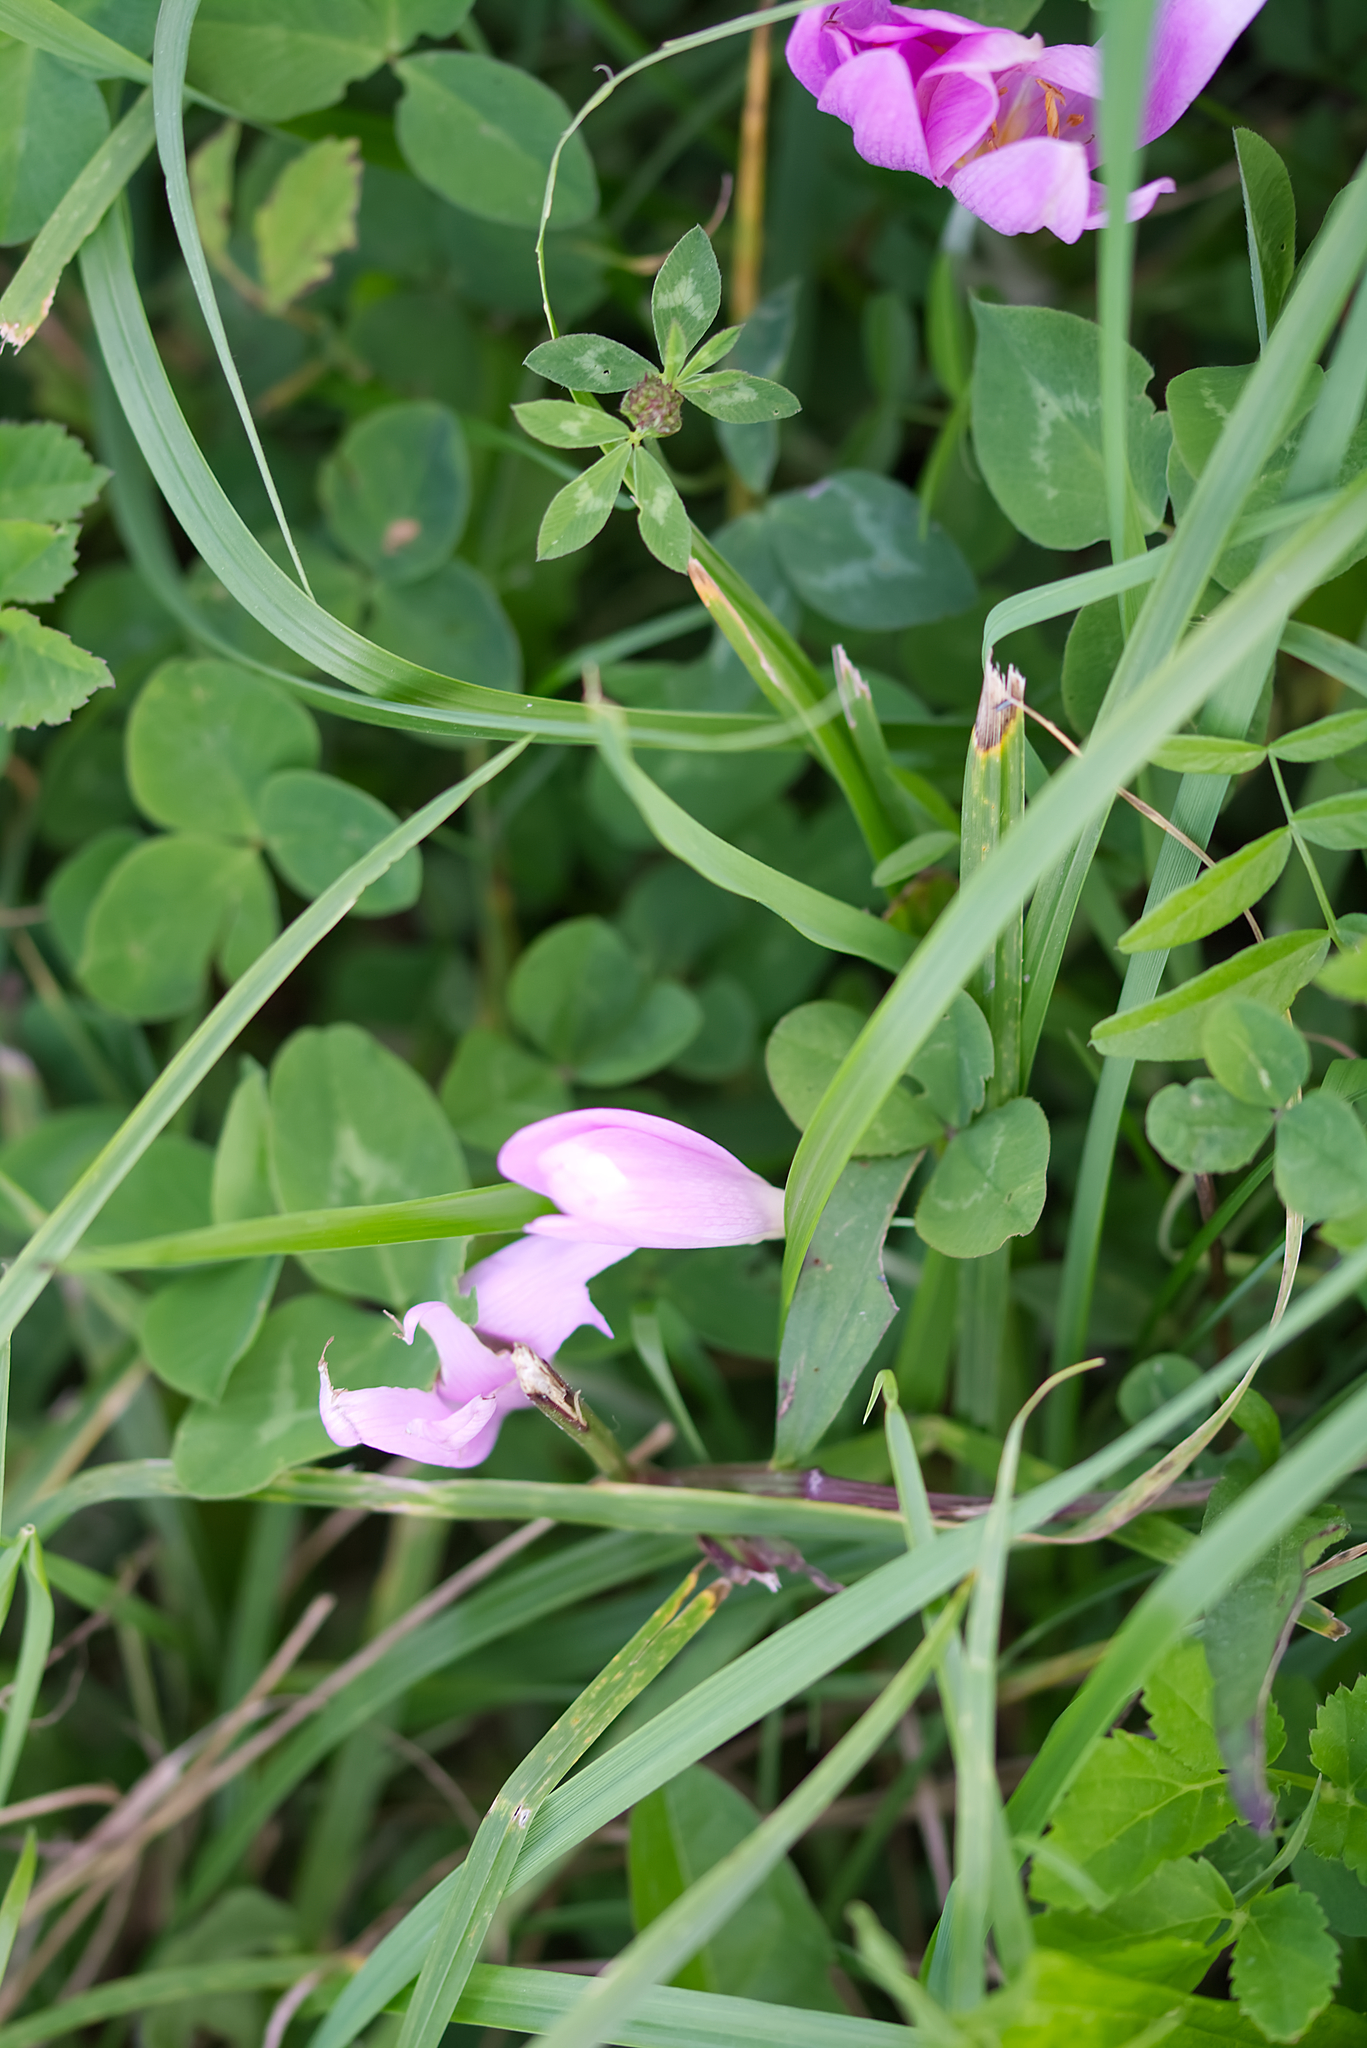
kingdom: Plantae
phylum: Tracheophyta
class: Liliopsida
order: Liliales
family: Colchicaceae
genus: Colchicum
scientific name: Colchicum autumnale
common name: Autumn crocus
